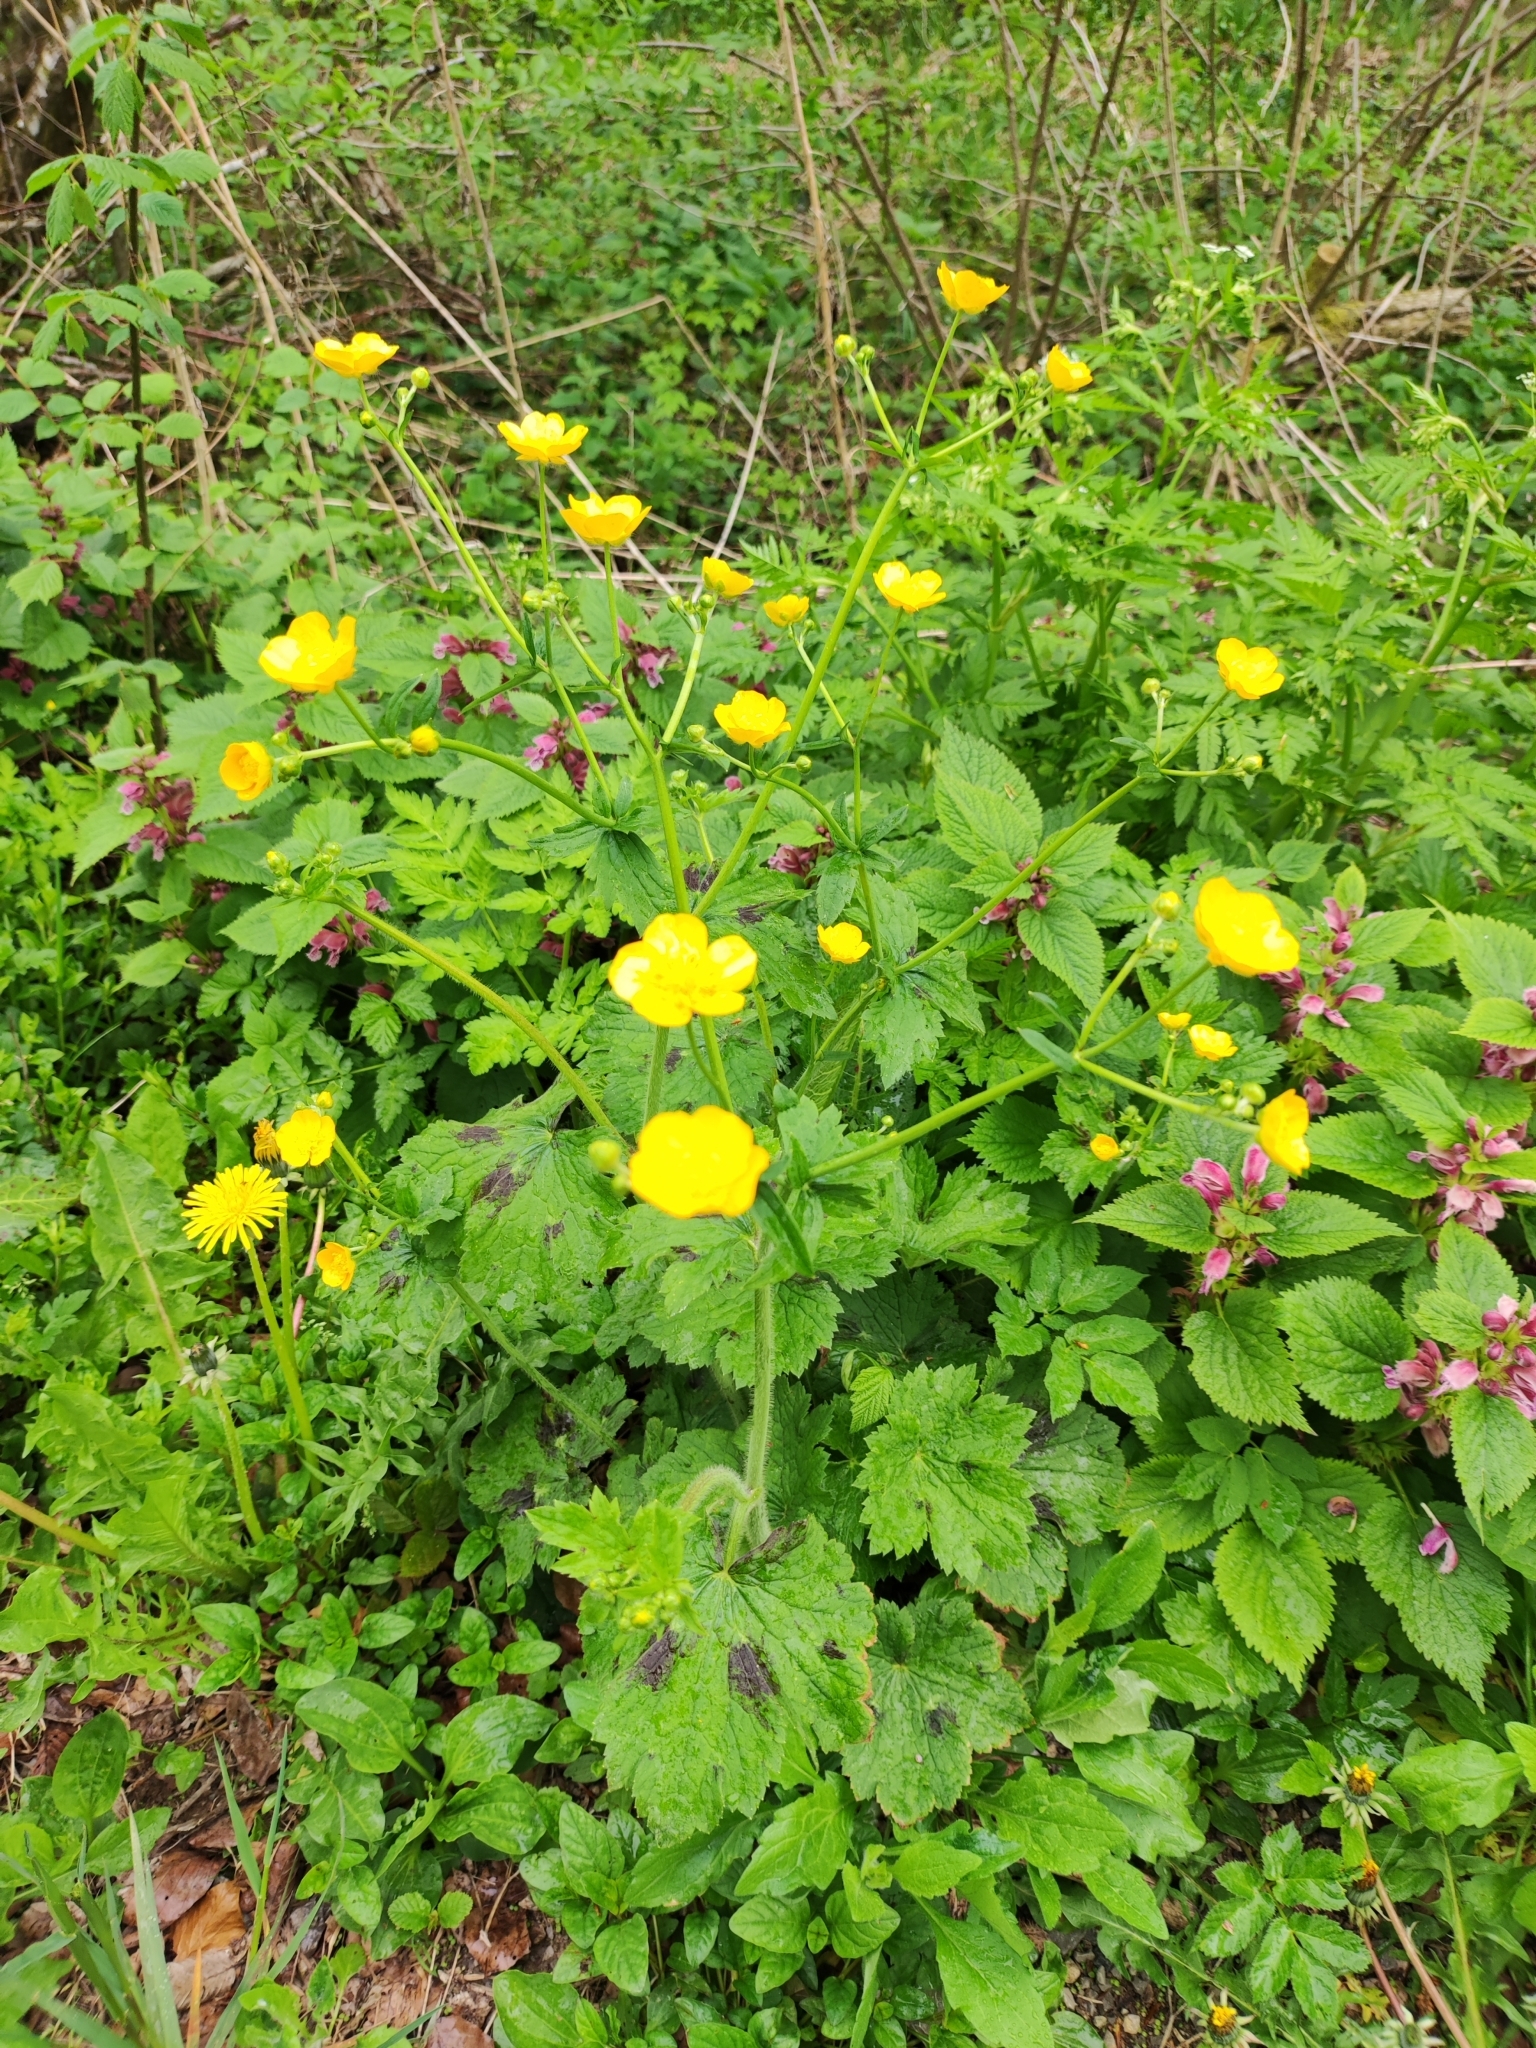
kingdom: Plantae
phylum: Tracheophyta
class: Magnoliopsida
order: Ranunculales
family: Ranunculaceae
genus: Ranunculus
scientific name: Ranunculus lanuginosus
